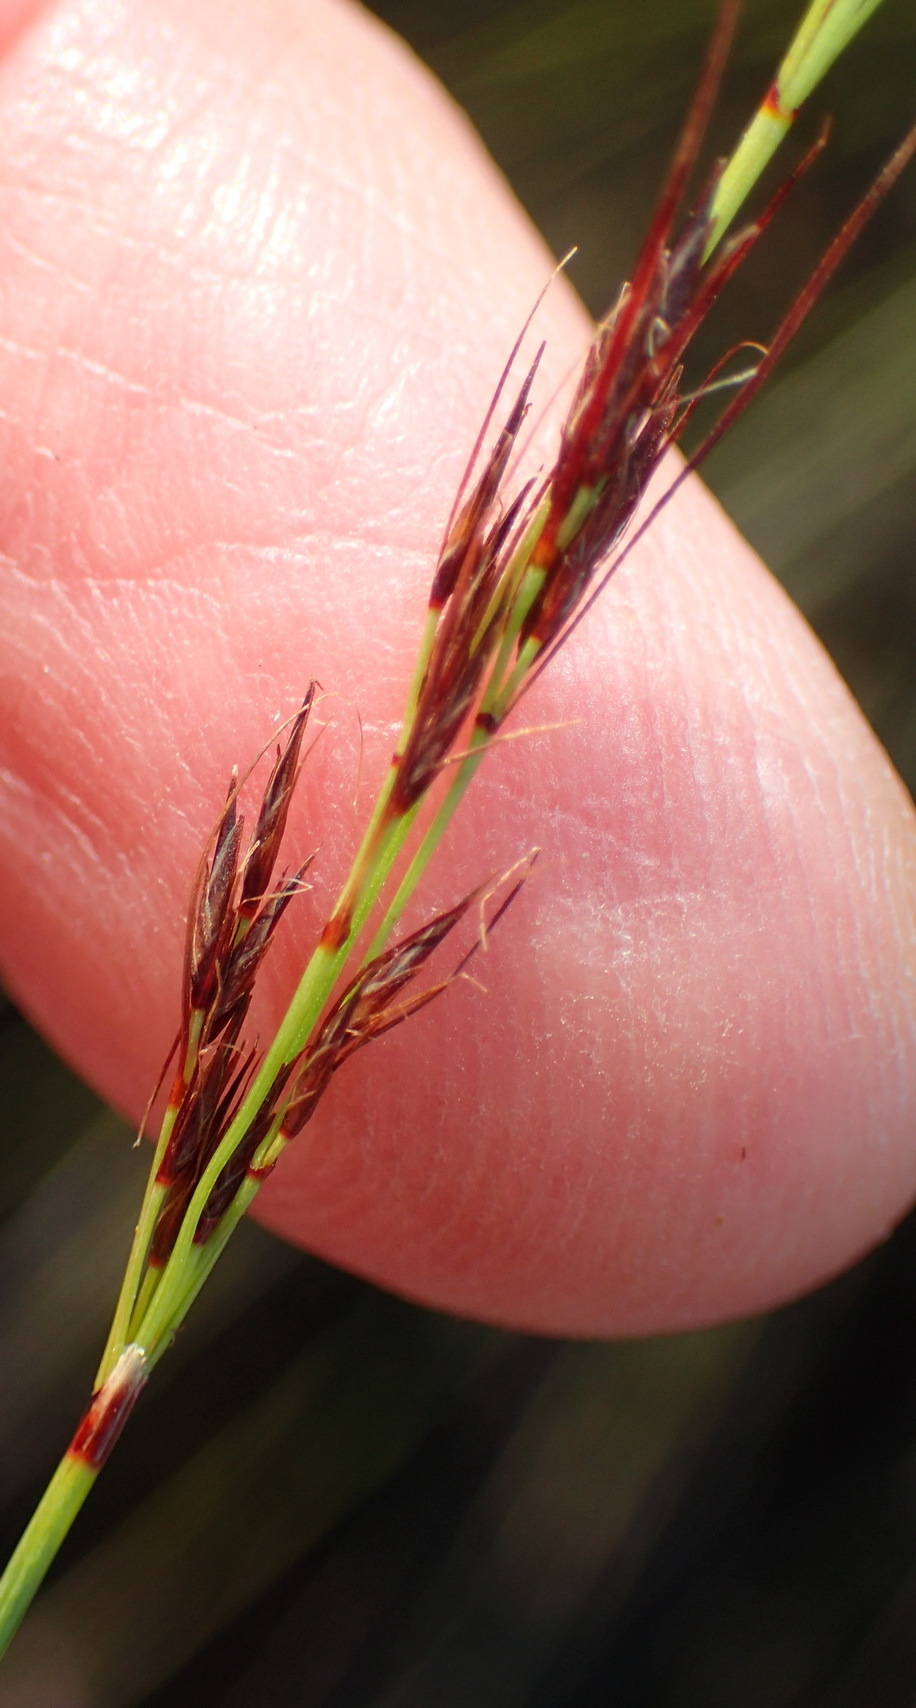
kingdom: Plantae
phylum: Tracheophyta
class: Liliopsida
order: Poales
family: Cyperaceae
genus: Schoenus
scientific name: Schoenus graciliculmis
